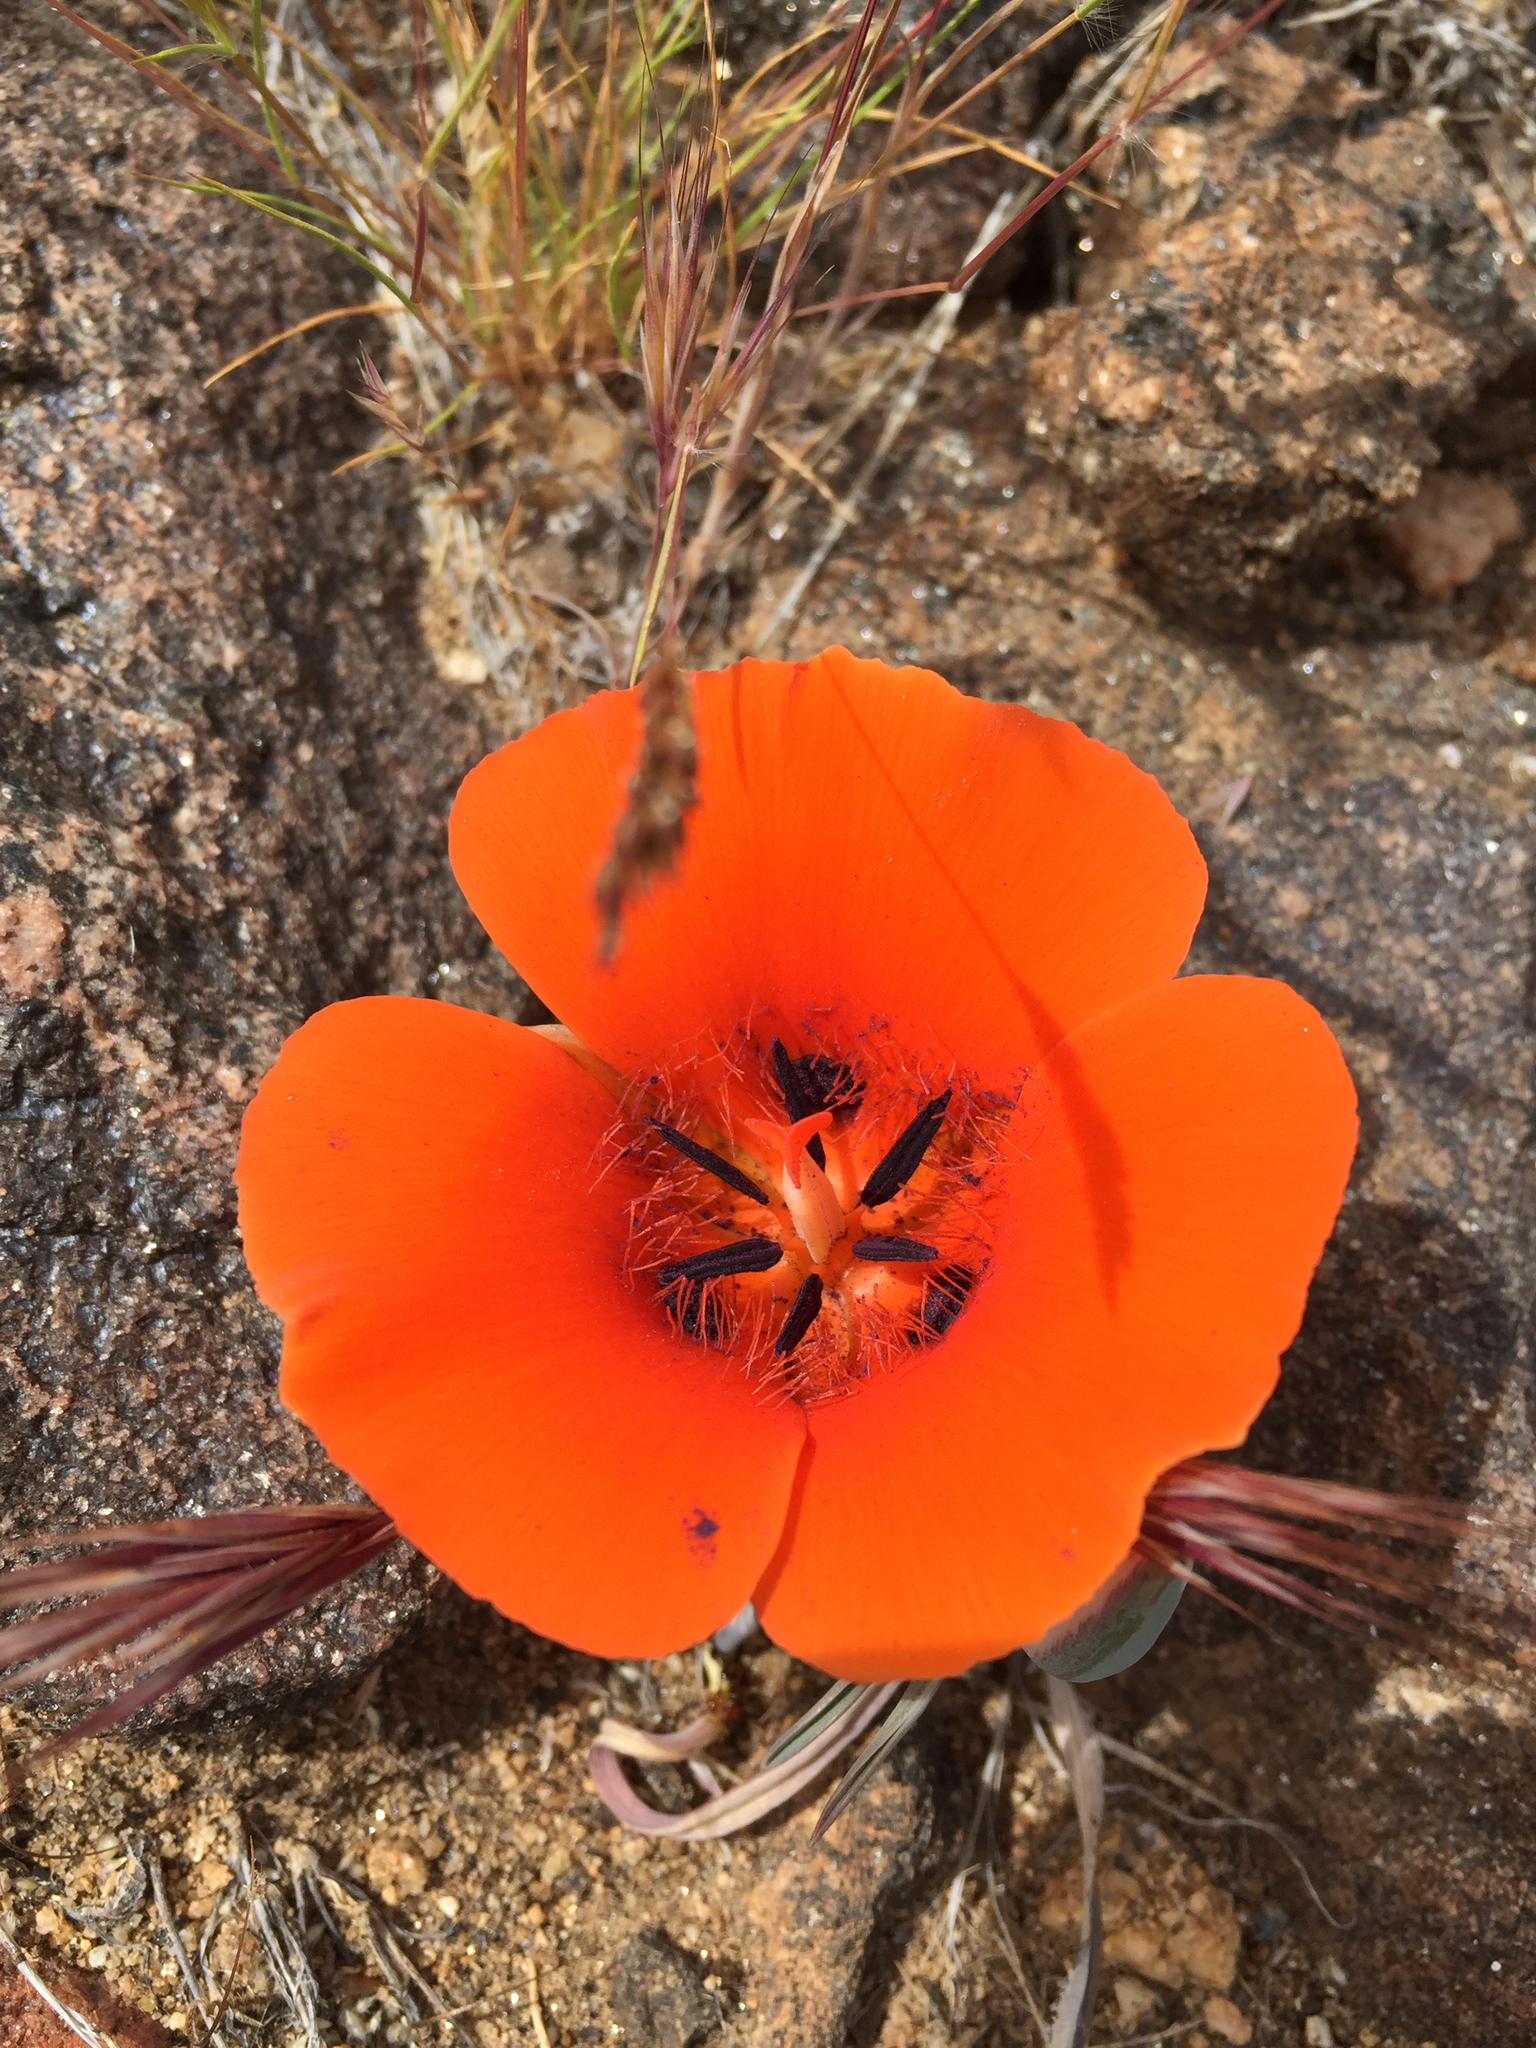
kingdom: Plantae
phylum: Tracheophyta
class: Liliopsida
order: Liliales
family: Liliaceae
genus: Calochortus
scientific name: Calochortus kennedyi
